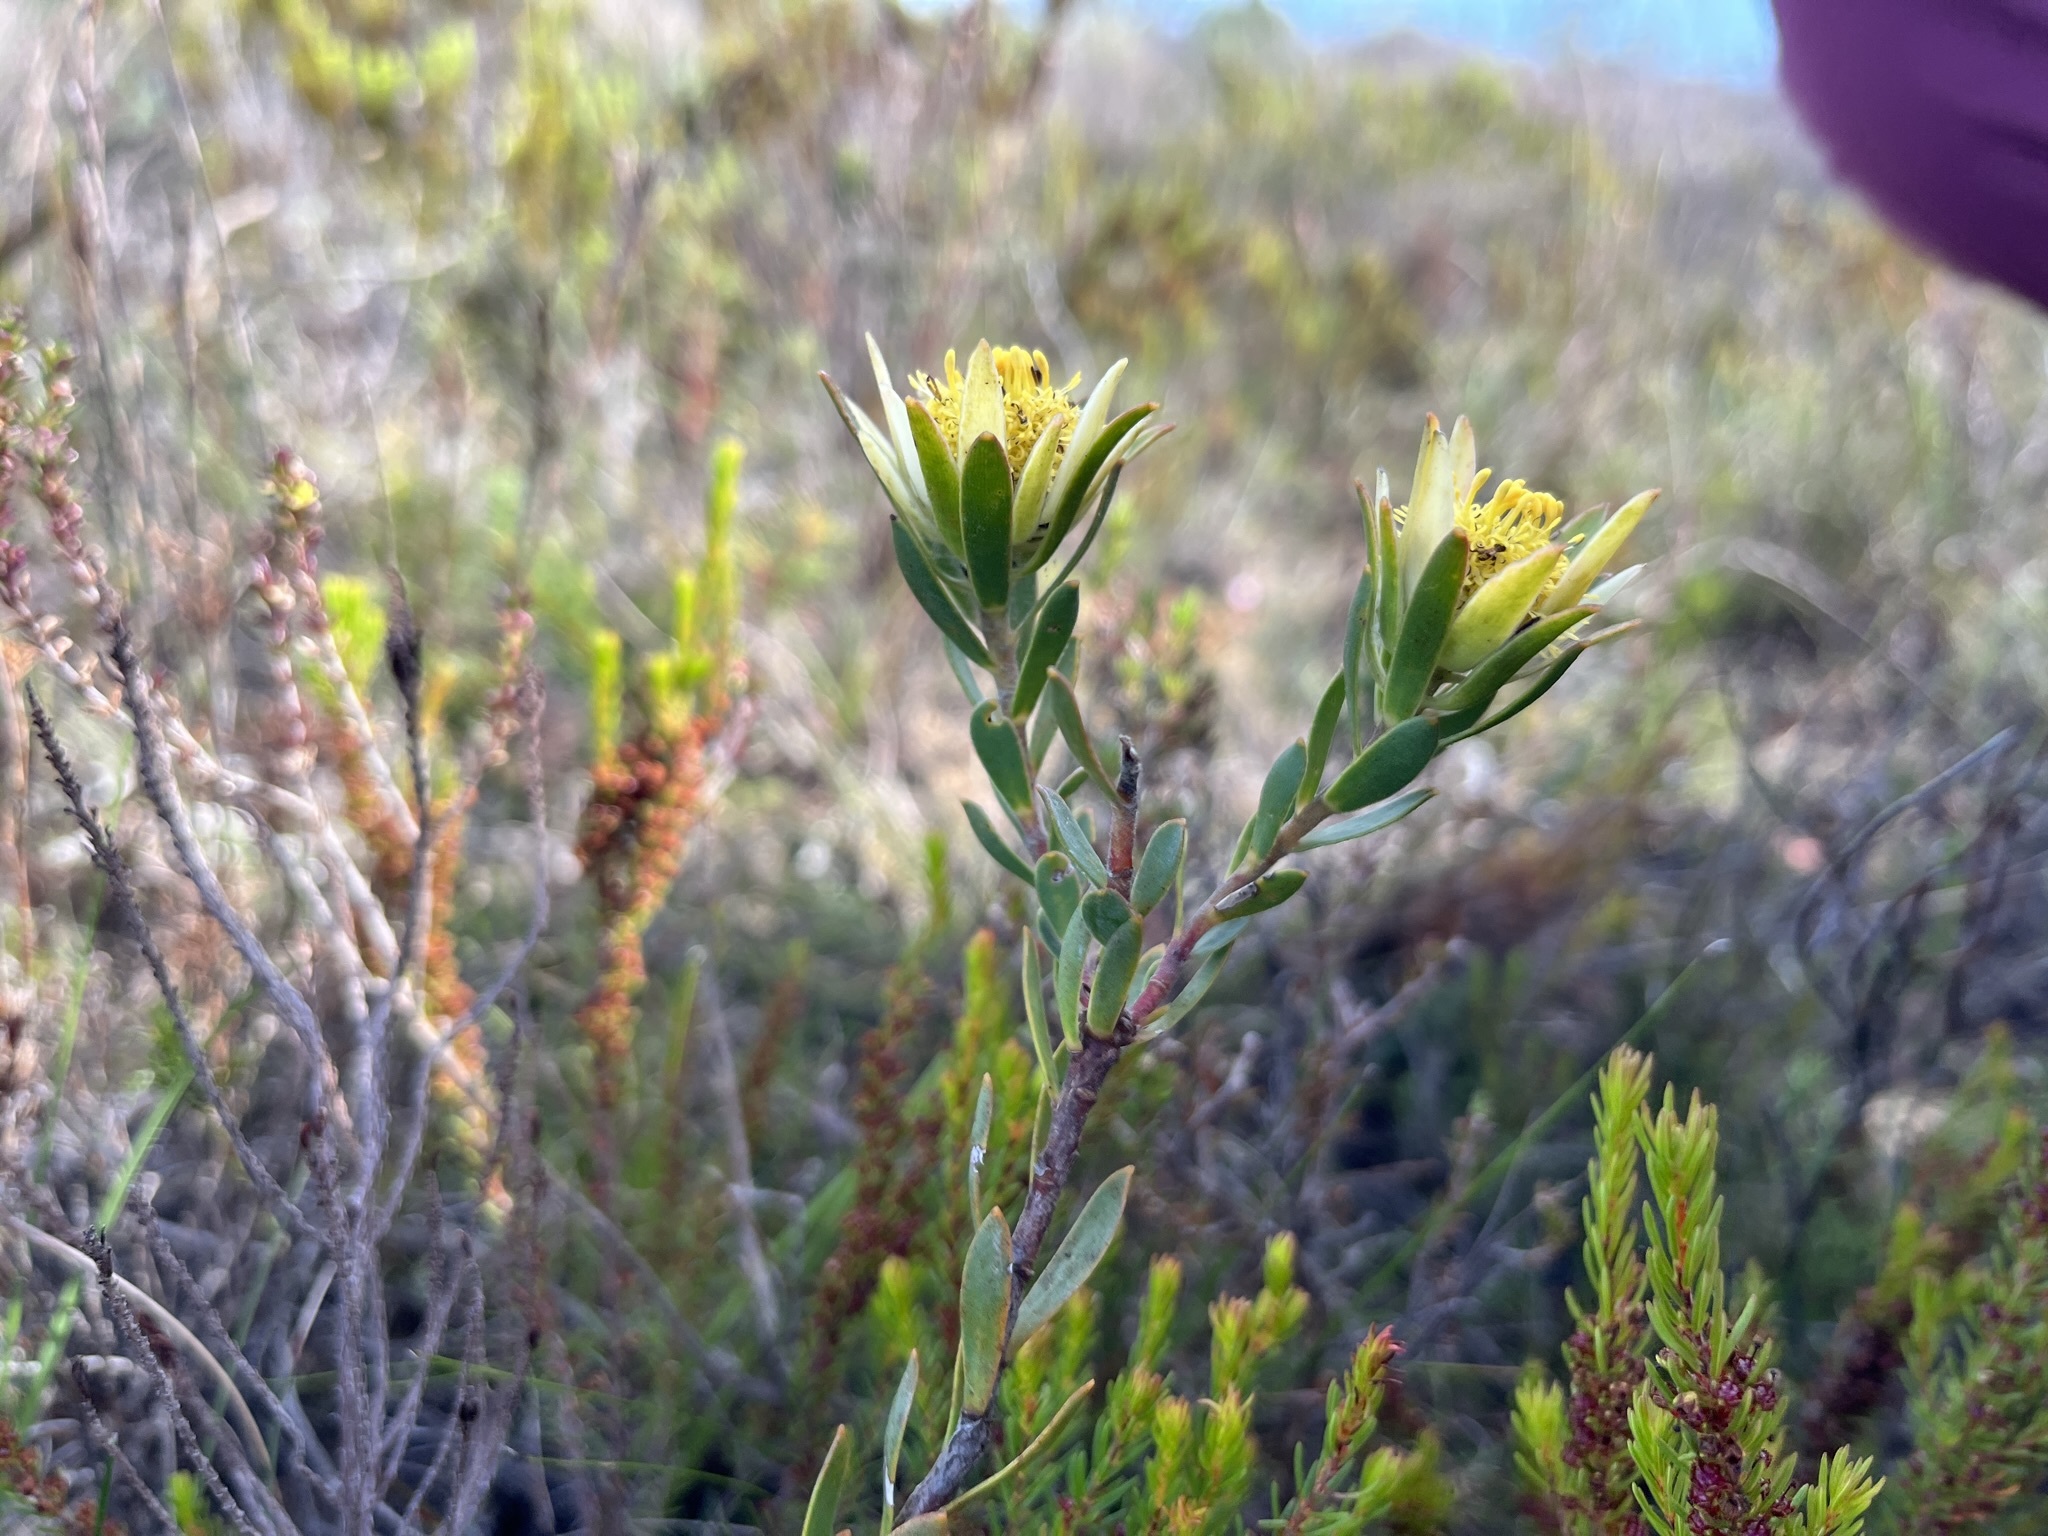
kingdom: Plantae
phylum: Tracheophyta
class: Magnoliopsida
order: Proteales
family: Proteaceae
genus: Leucadendron
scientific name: Leucadendron stelligerum
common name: Agulhas conebush
